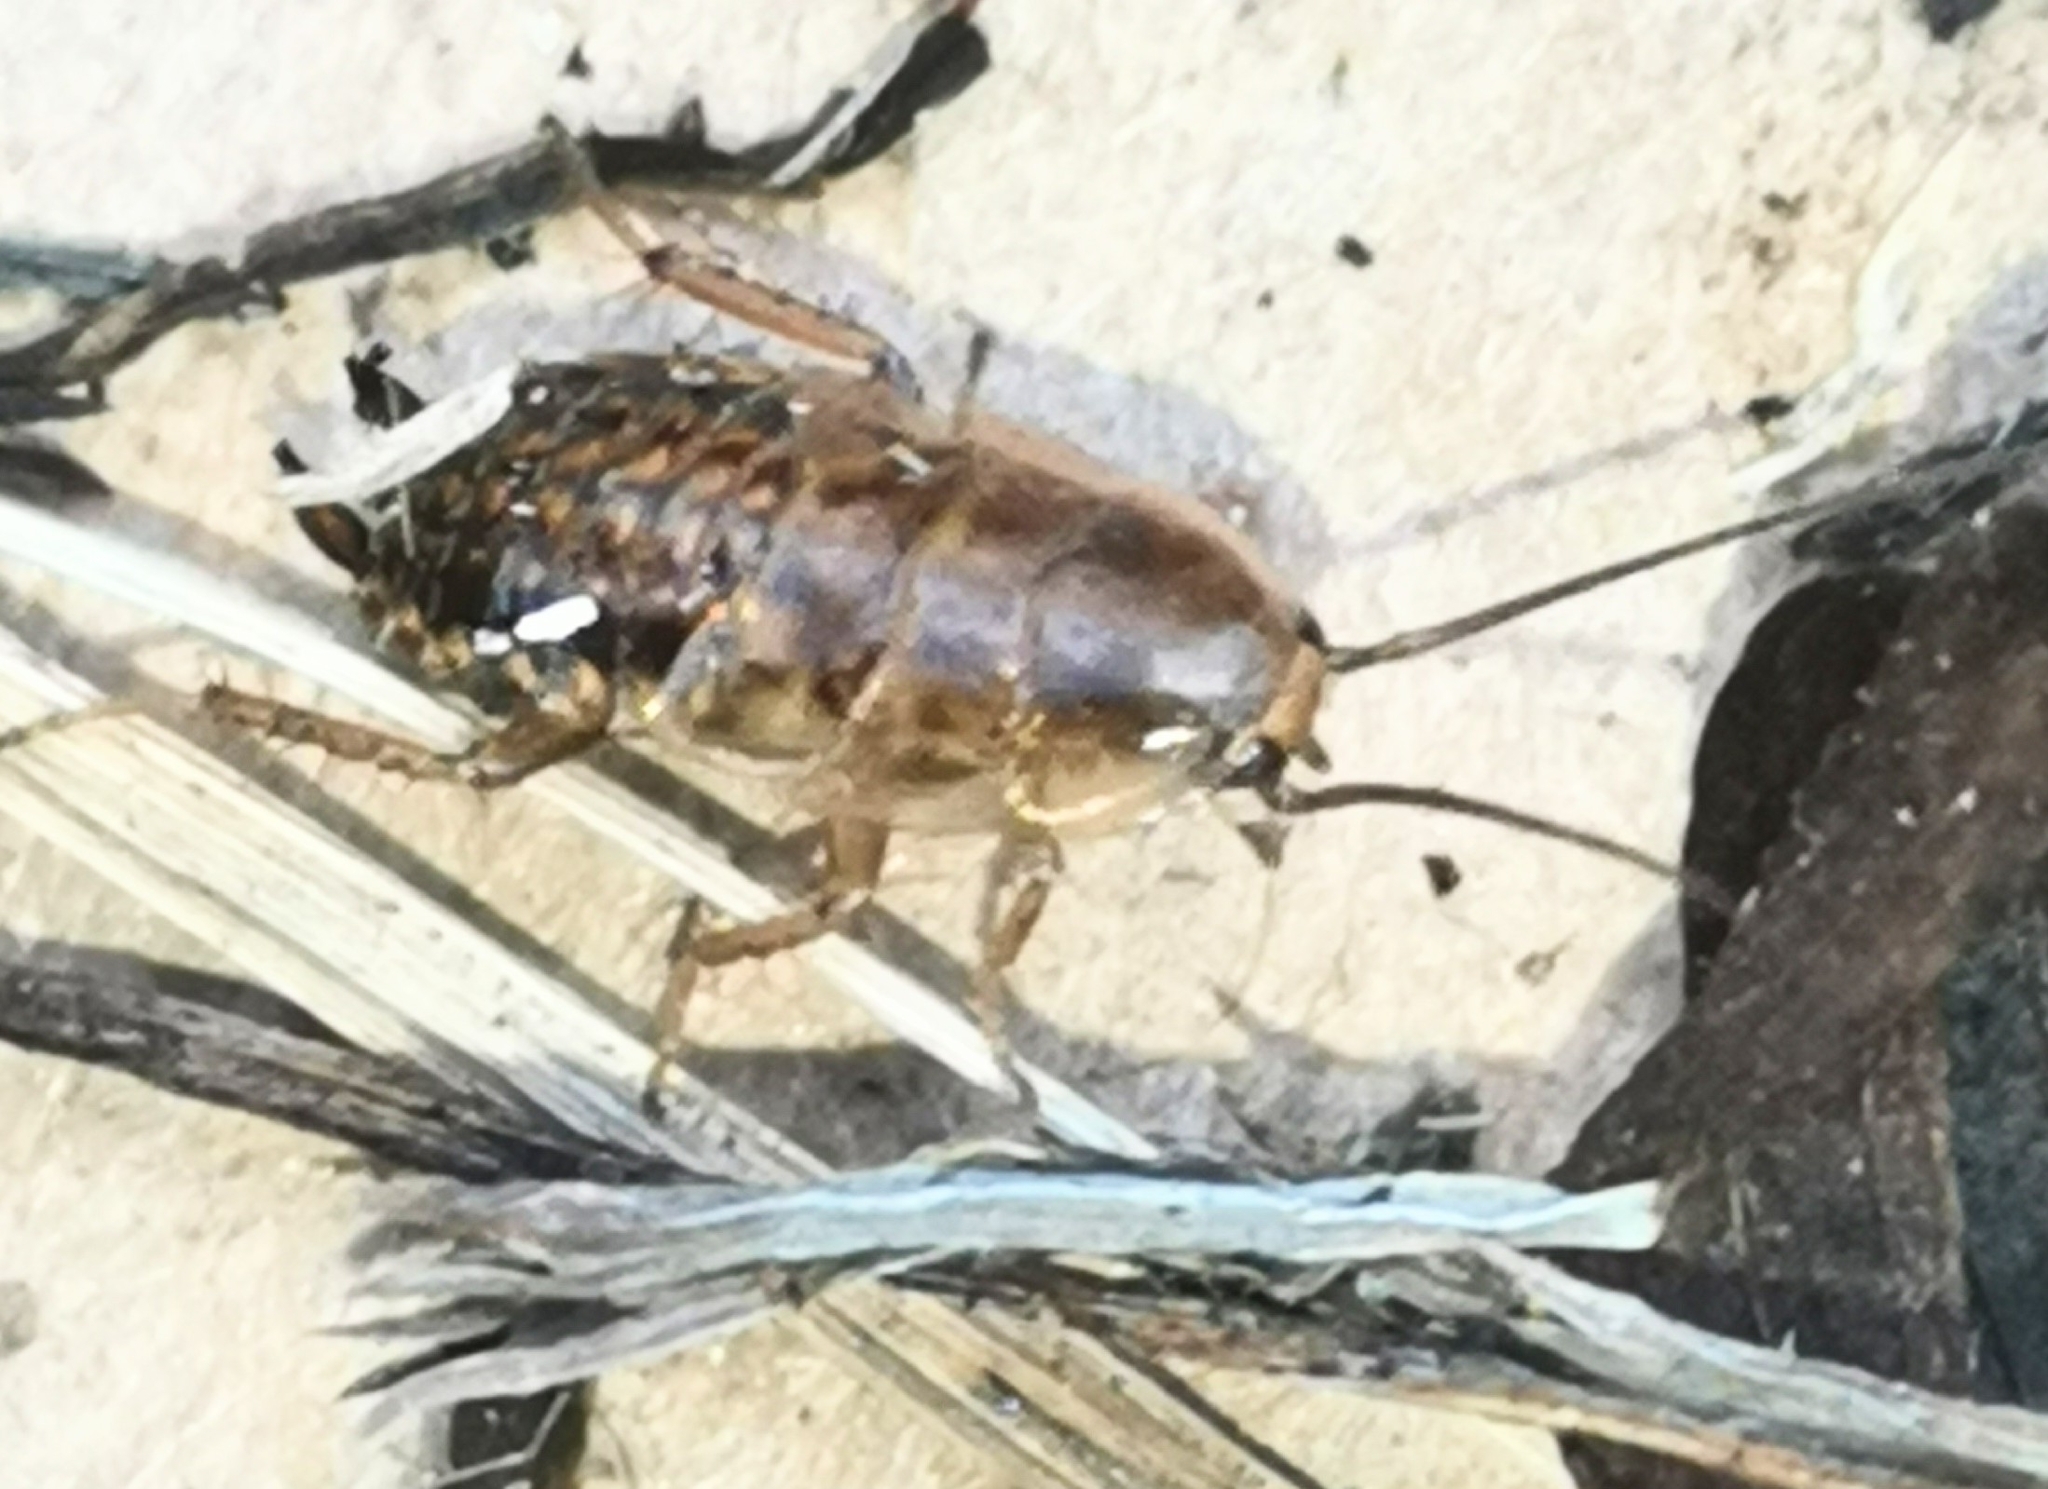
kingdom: Animalia
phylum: Arthropoda
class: Insecta
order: Blattodea
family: Ectobiidae
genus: Ectobius
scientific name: Ectobius lapponicus
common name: Dusky cockroach
